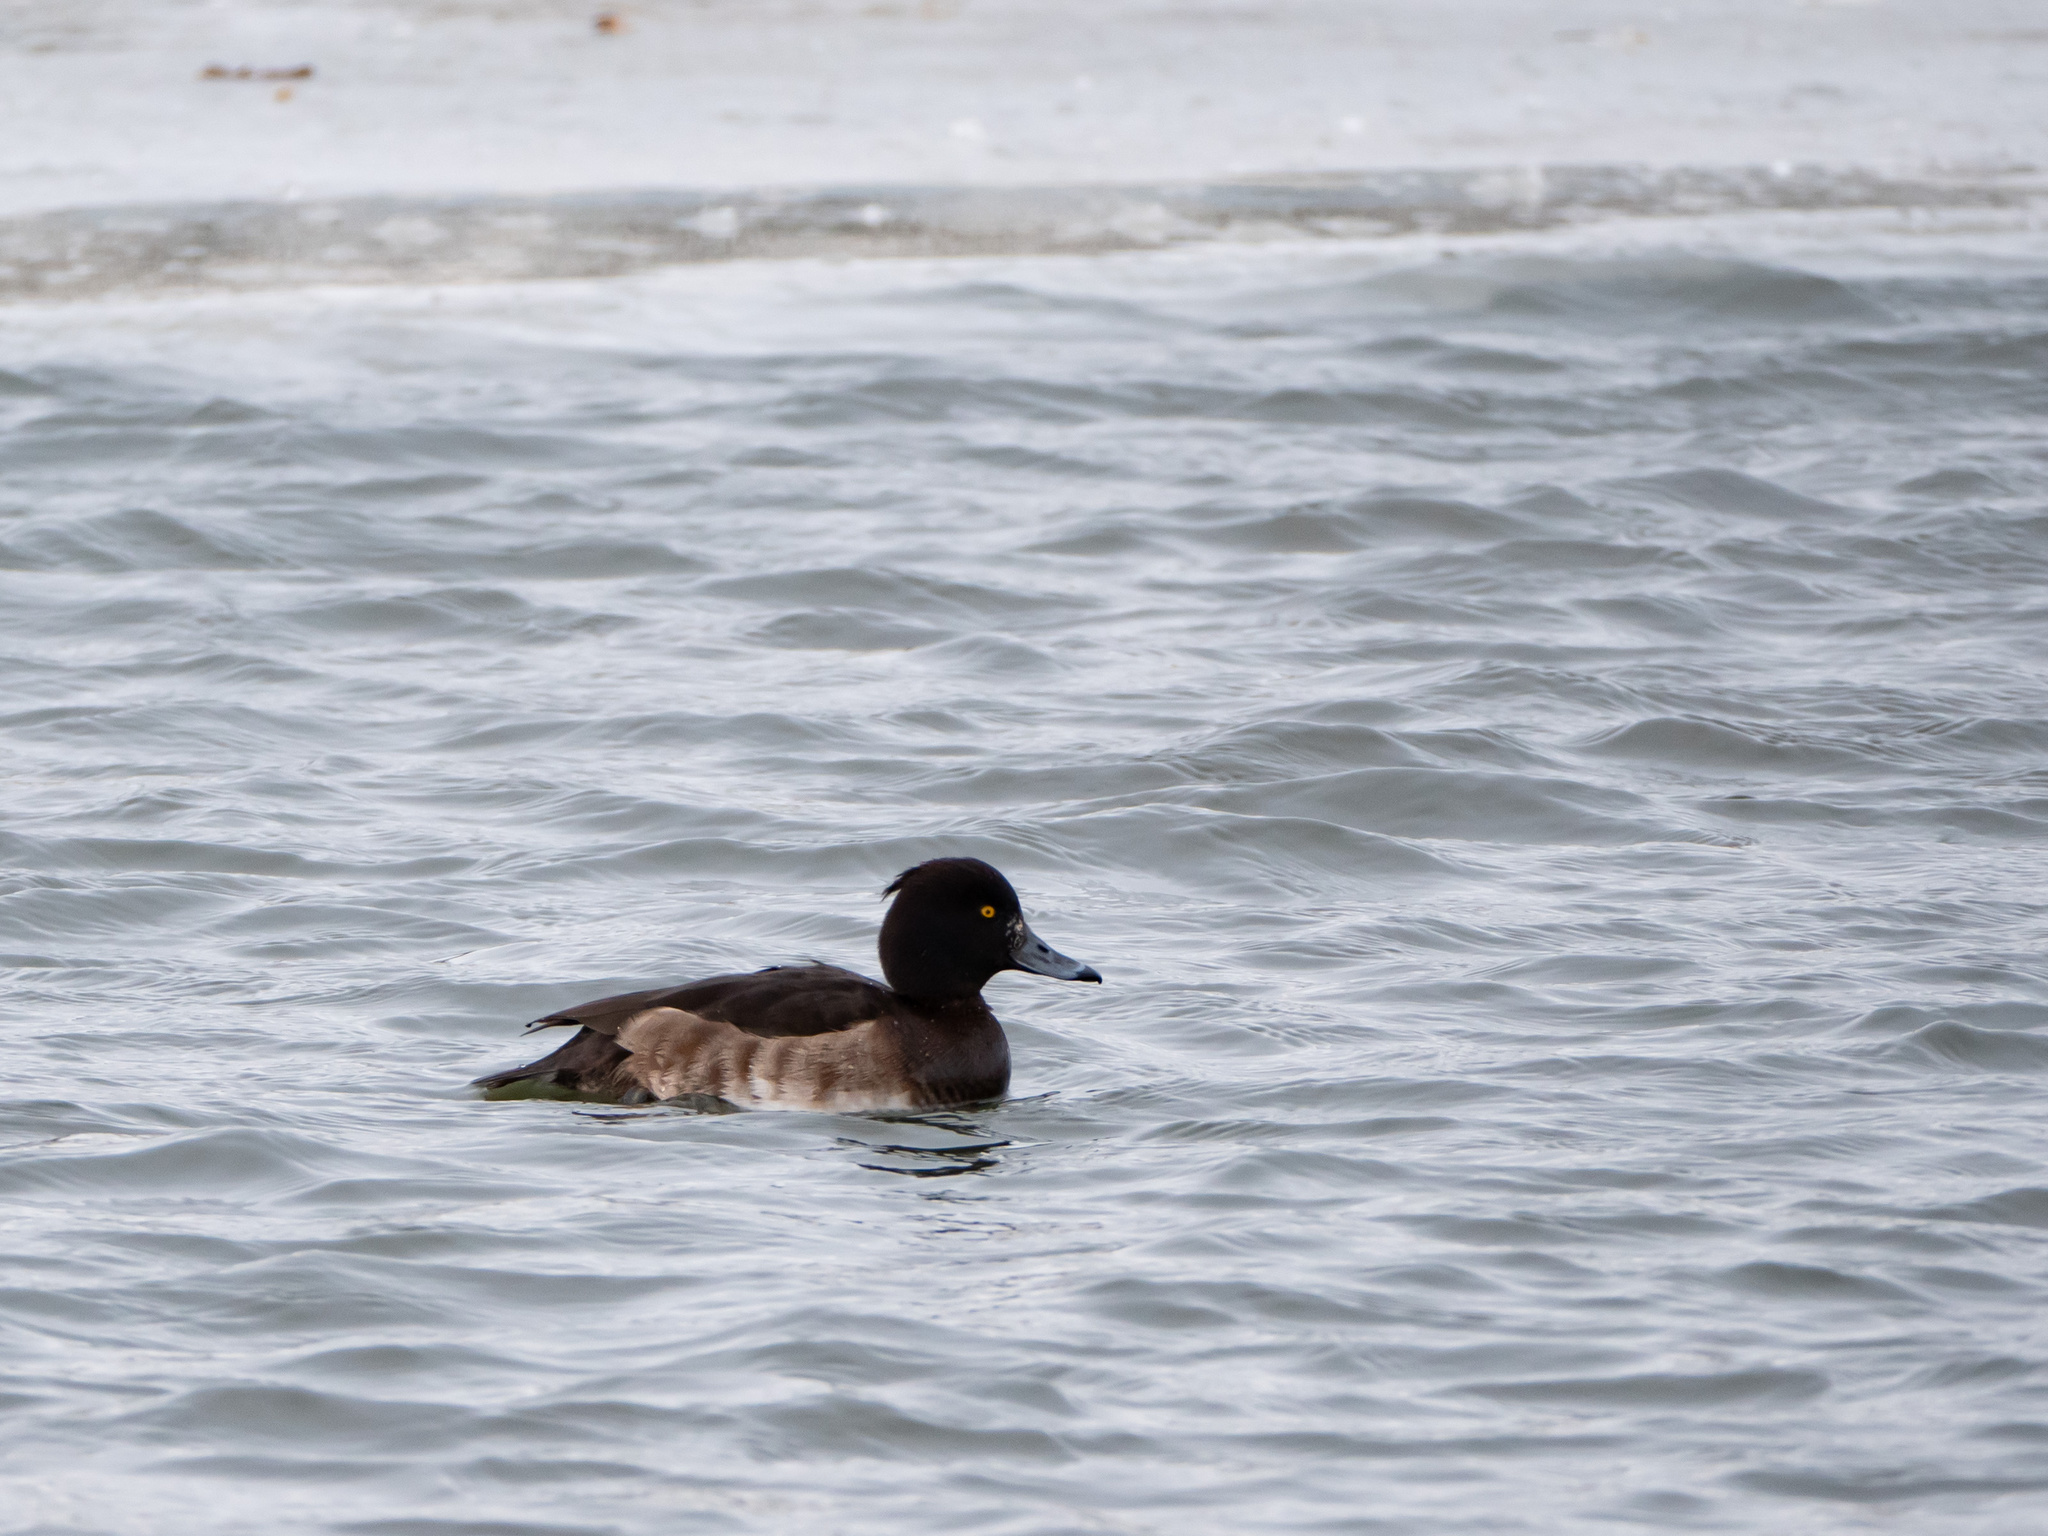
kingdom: Animalia
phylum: Chordata
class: Aves
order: Anseriformes
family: Anatidae
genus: Aythya
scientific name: Aythya fuligula
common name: Tufted duck
